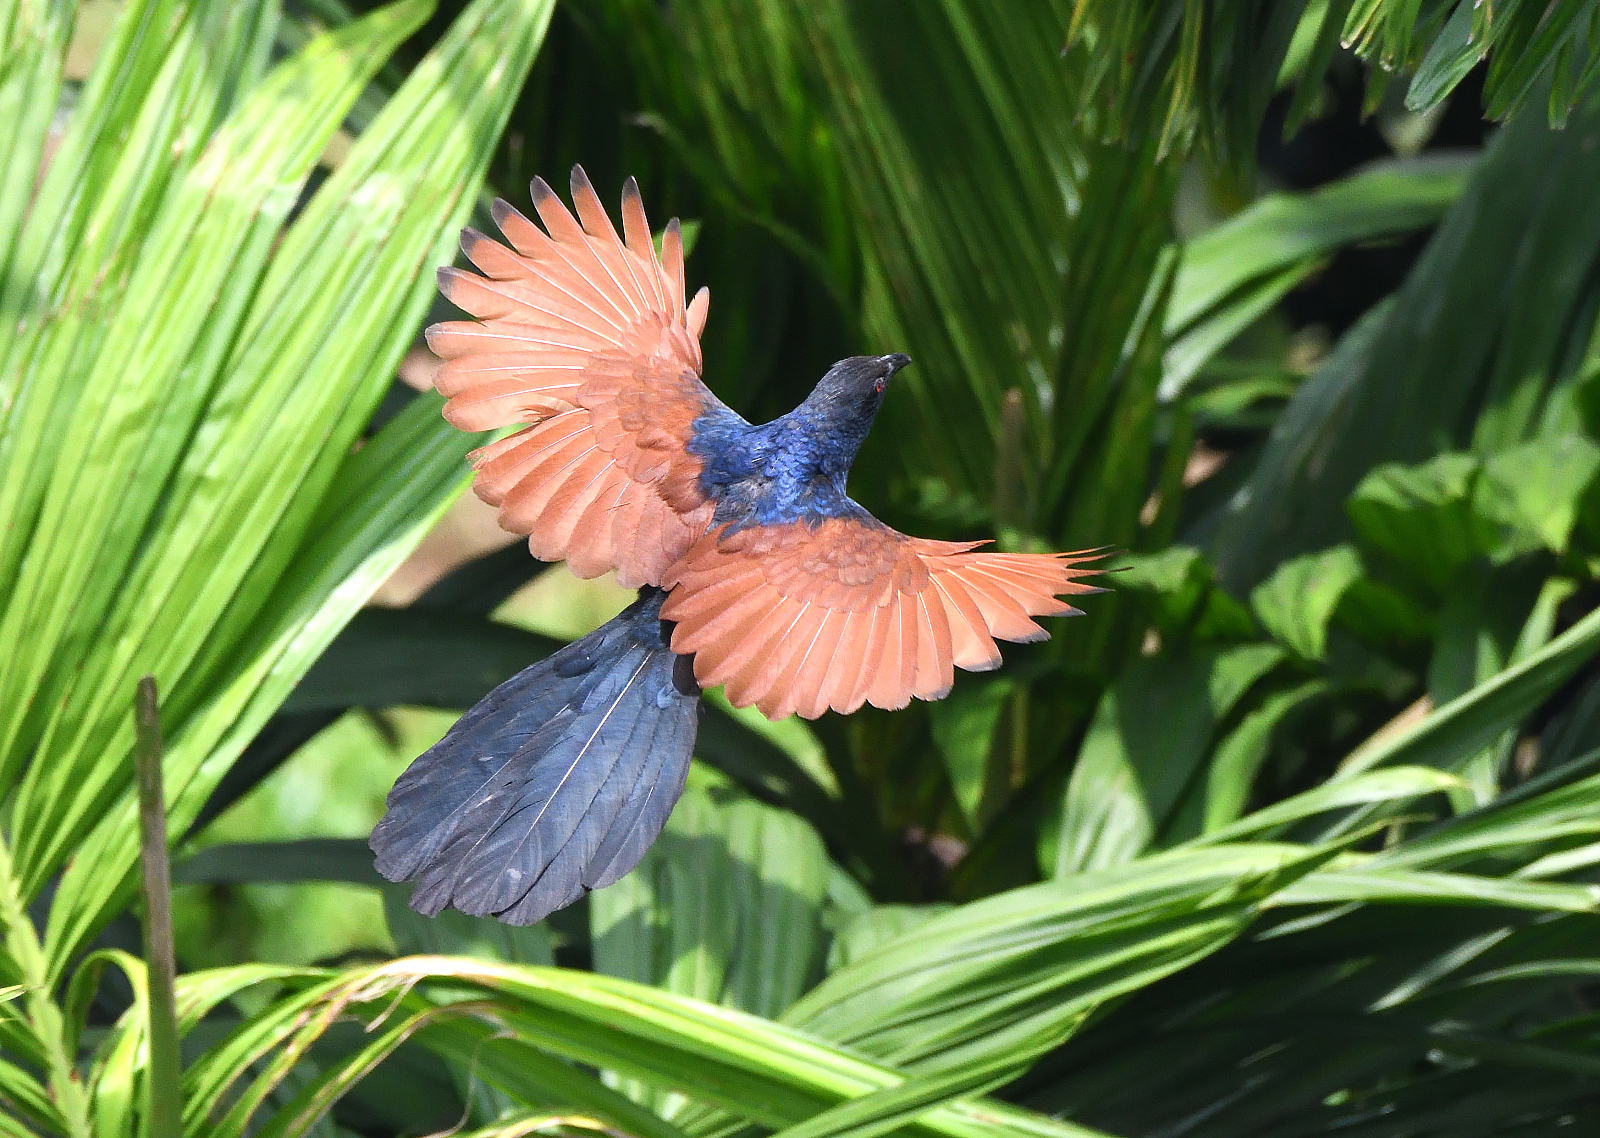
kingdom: Animalia
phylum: Chordata
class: Aves
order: Cuculiformes
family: Cuculidae
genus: Centropus
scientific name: Centropus sinensis
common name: Greater coucal
